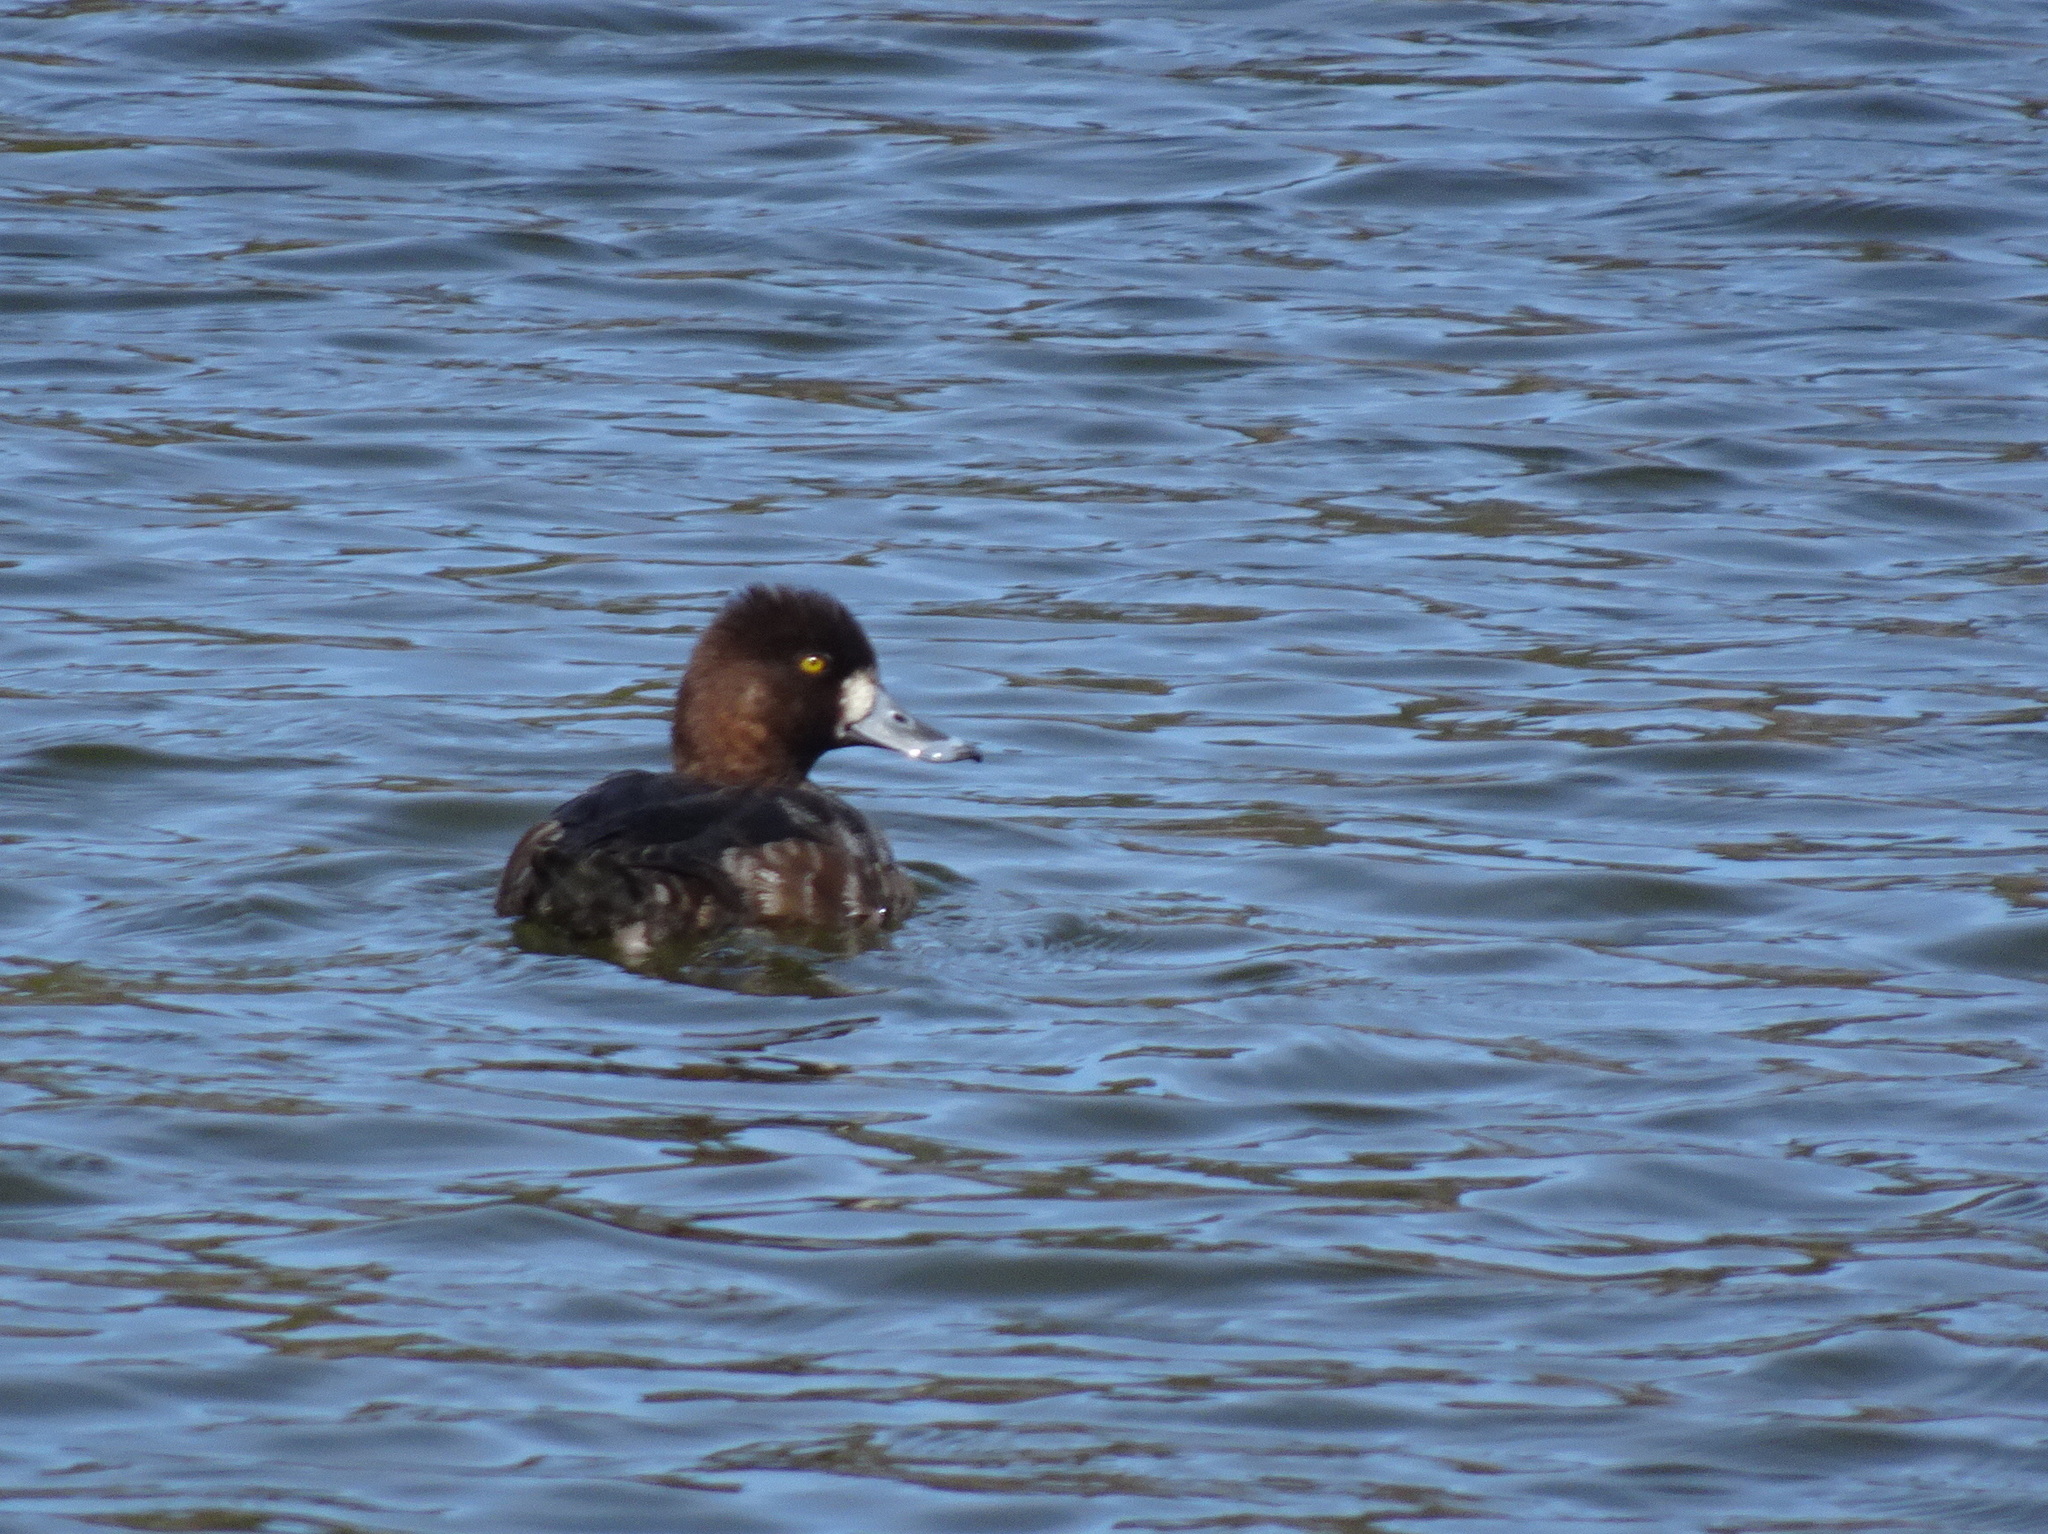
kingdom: Animalia
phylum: Chordata
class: Aves
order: Anseriformes
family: Anatidae
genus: Aythya
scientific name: Aythya affinis
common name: Lesser scaup
